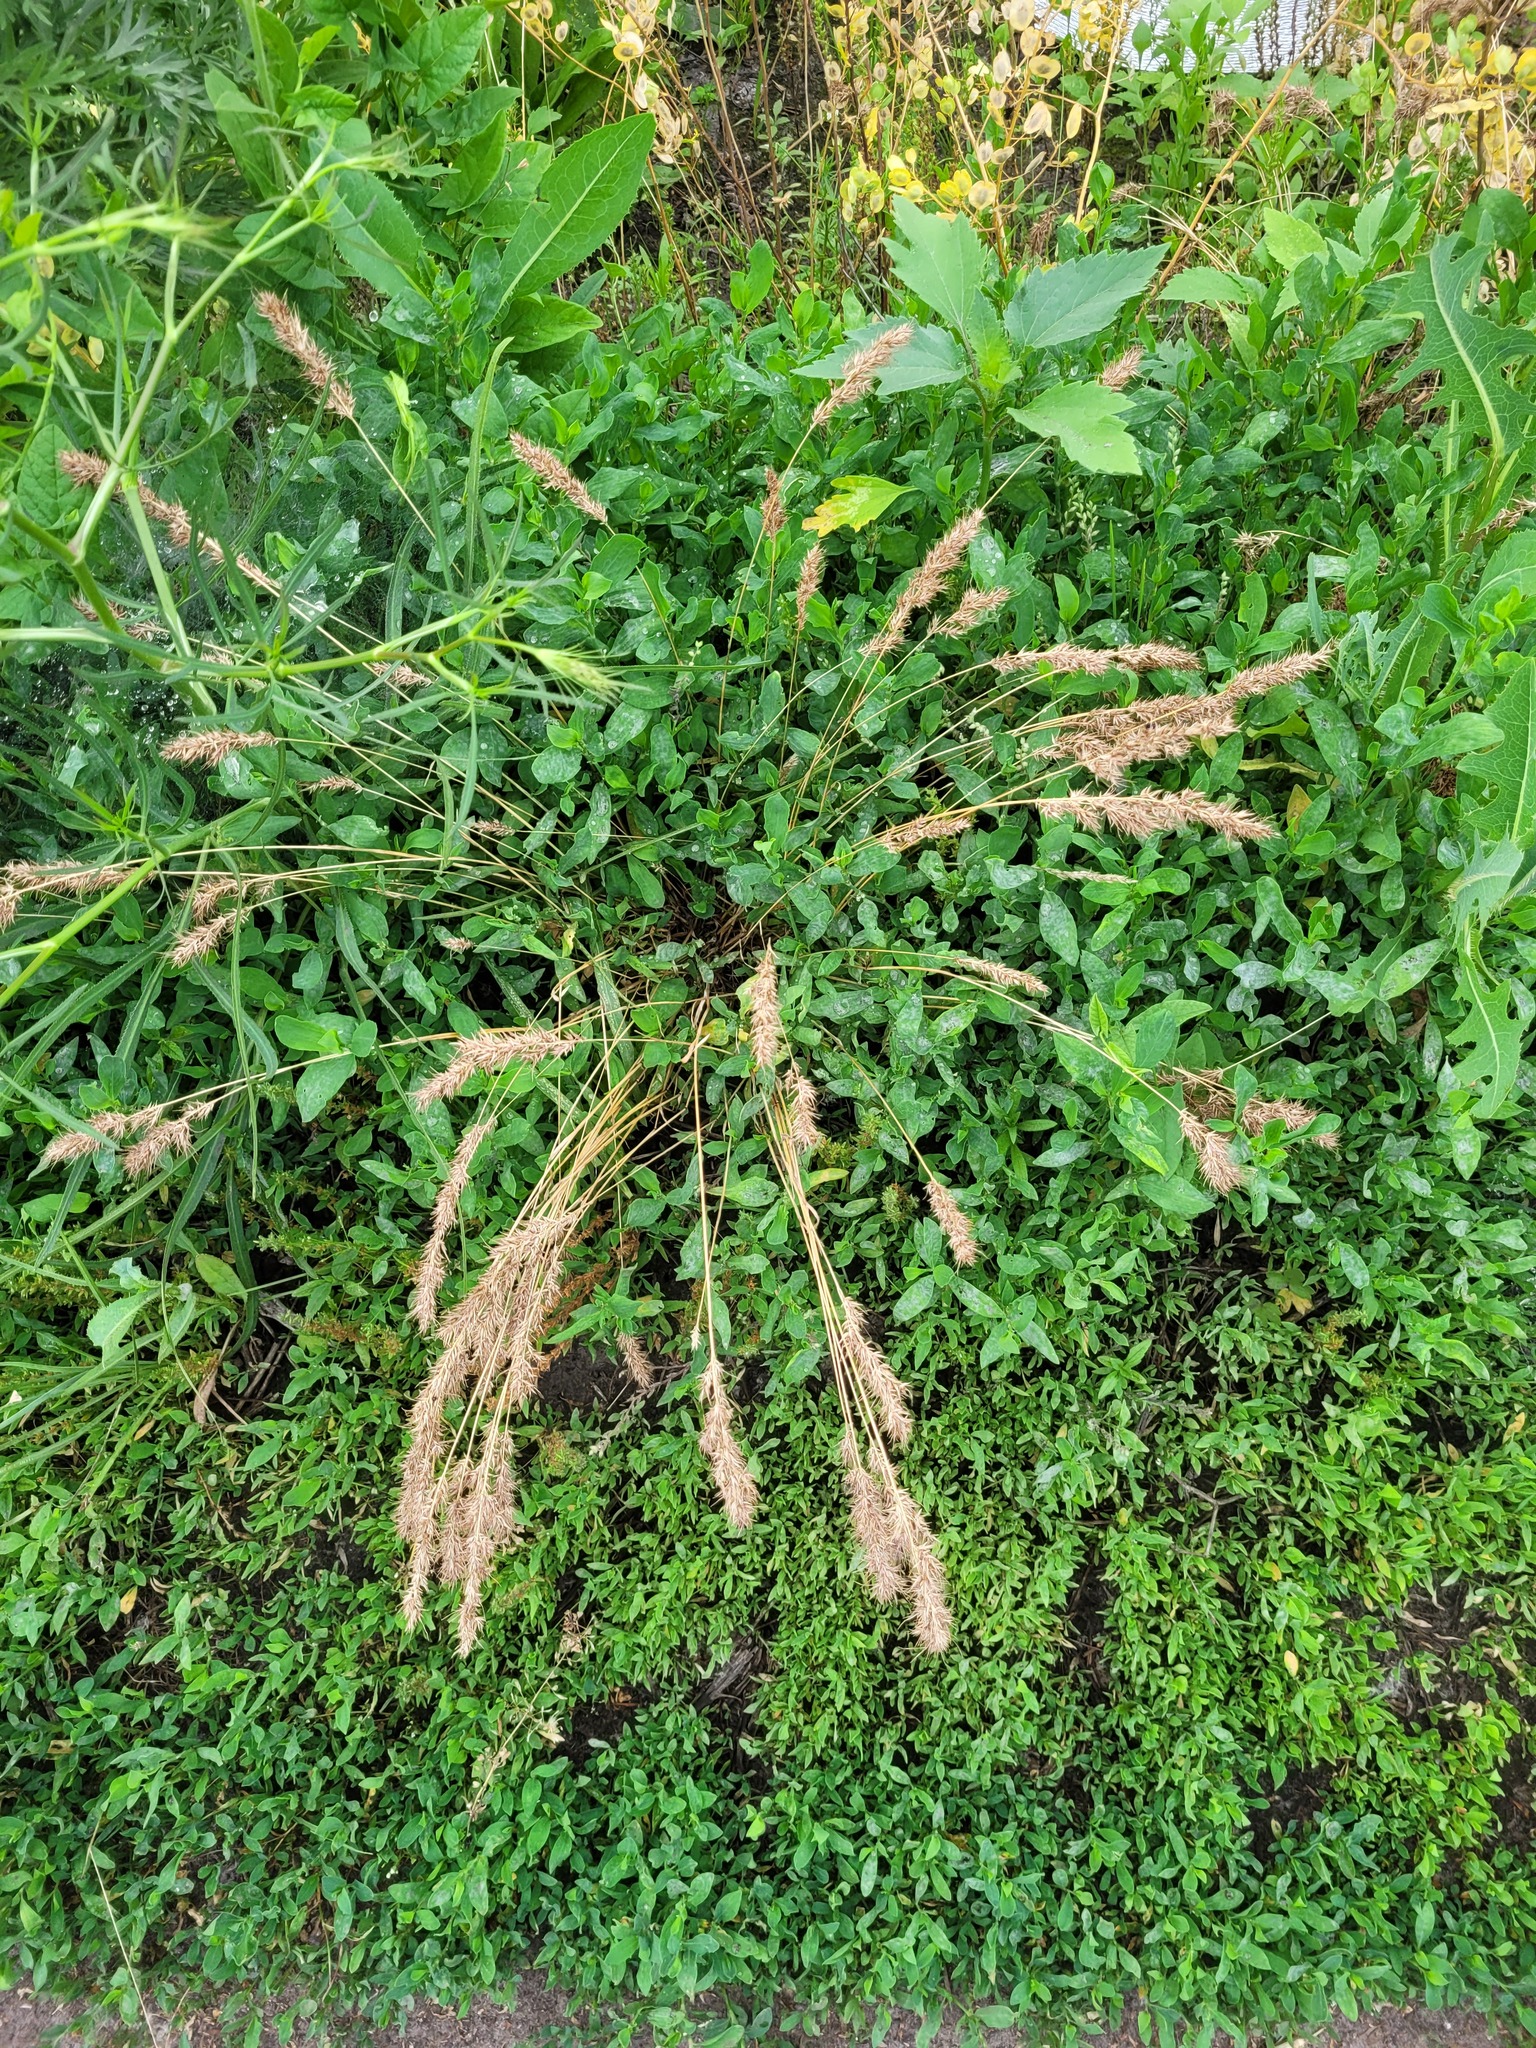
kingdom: Plantae
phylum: Tracheophyta
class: Liliopsida
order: Poales
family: Poaceae
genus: Poa
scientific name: Poa bulbosa
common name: Bulbous bluegrass
